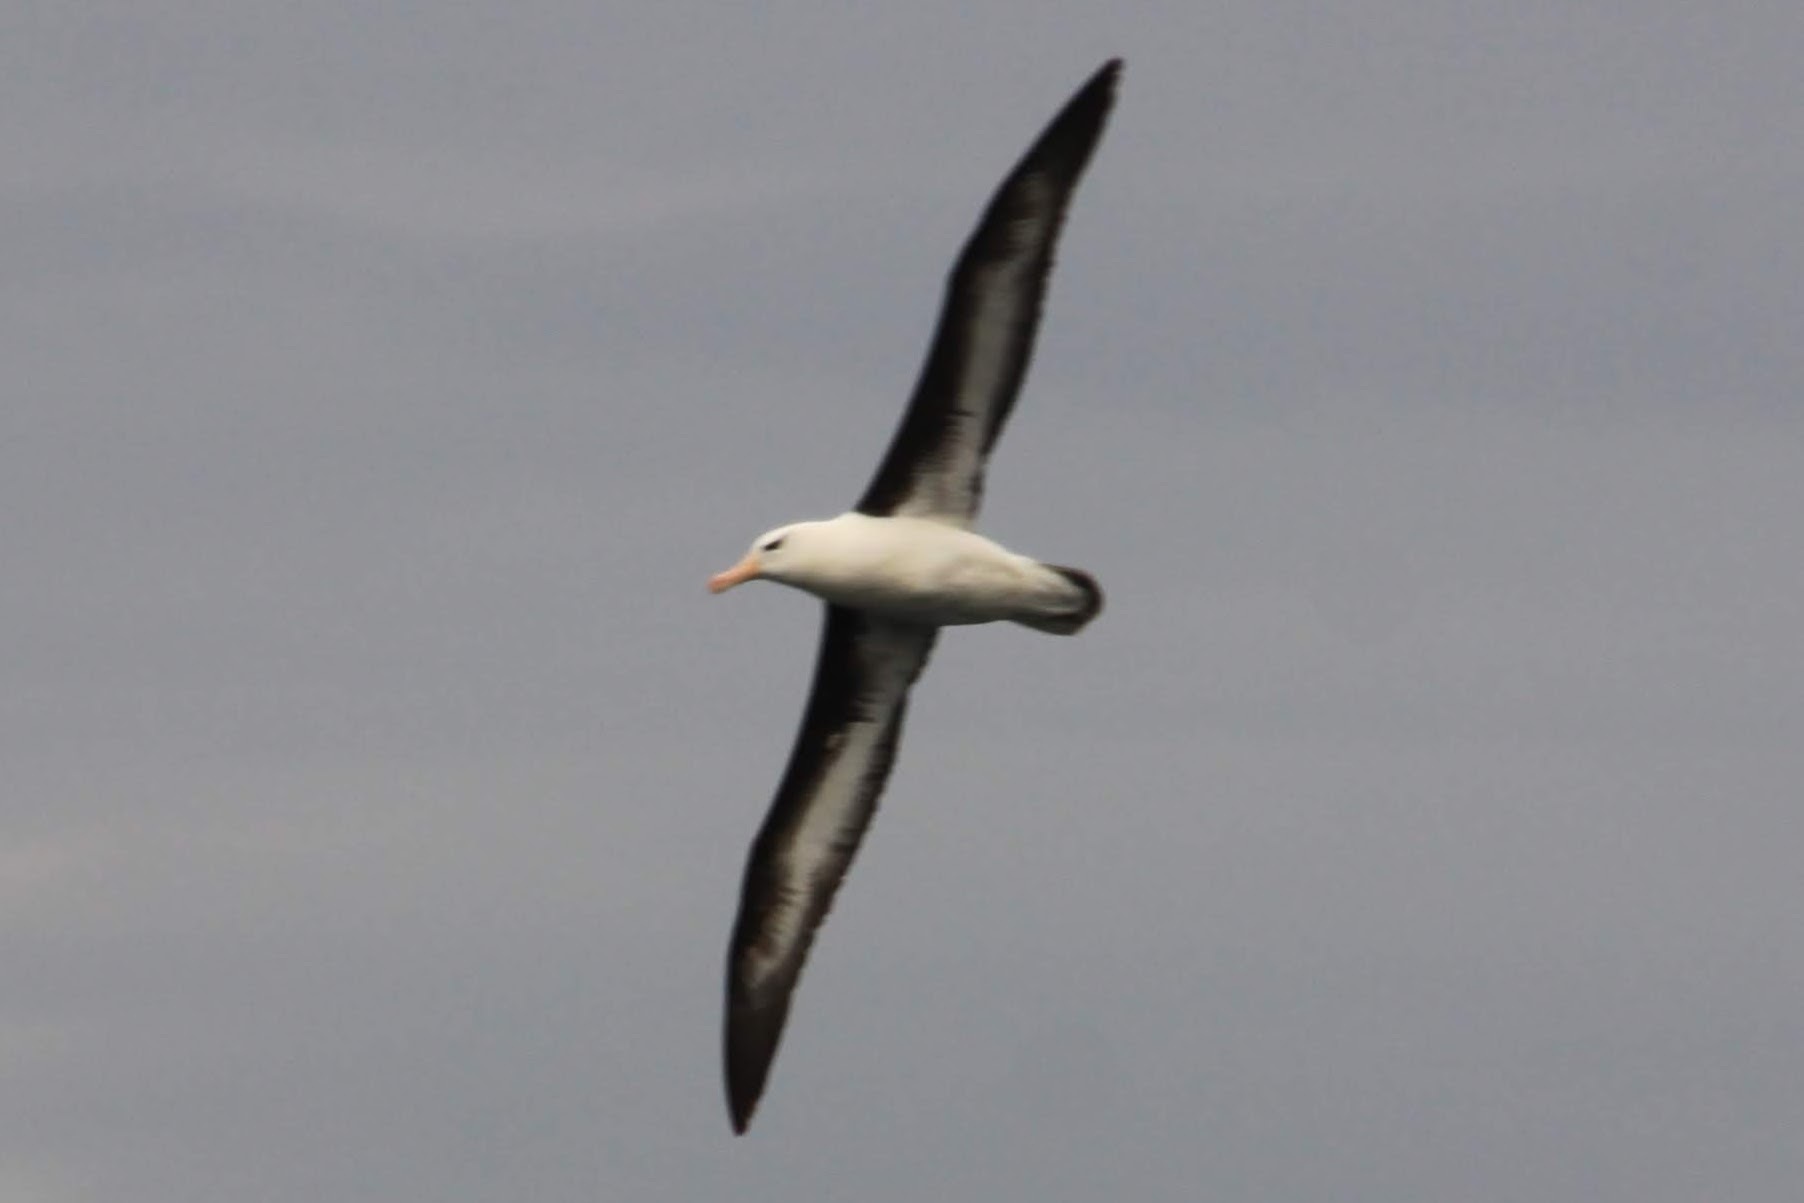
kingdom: Animalia
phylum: Chordata
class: Aves
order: Procellariiformes
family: Diomedeidae
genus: Thalassarche
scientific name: Thalassarche melanophris
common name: Black-browed albatross
